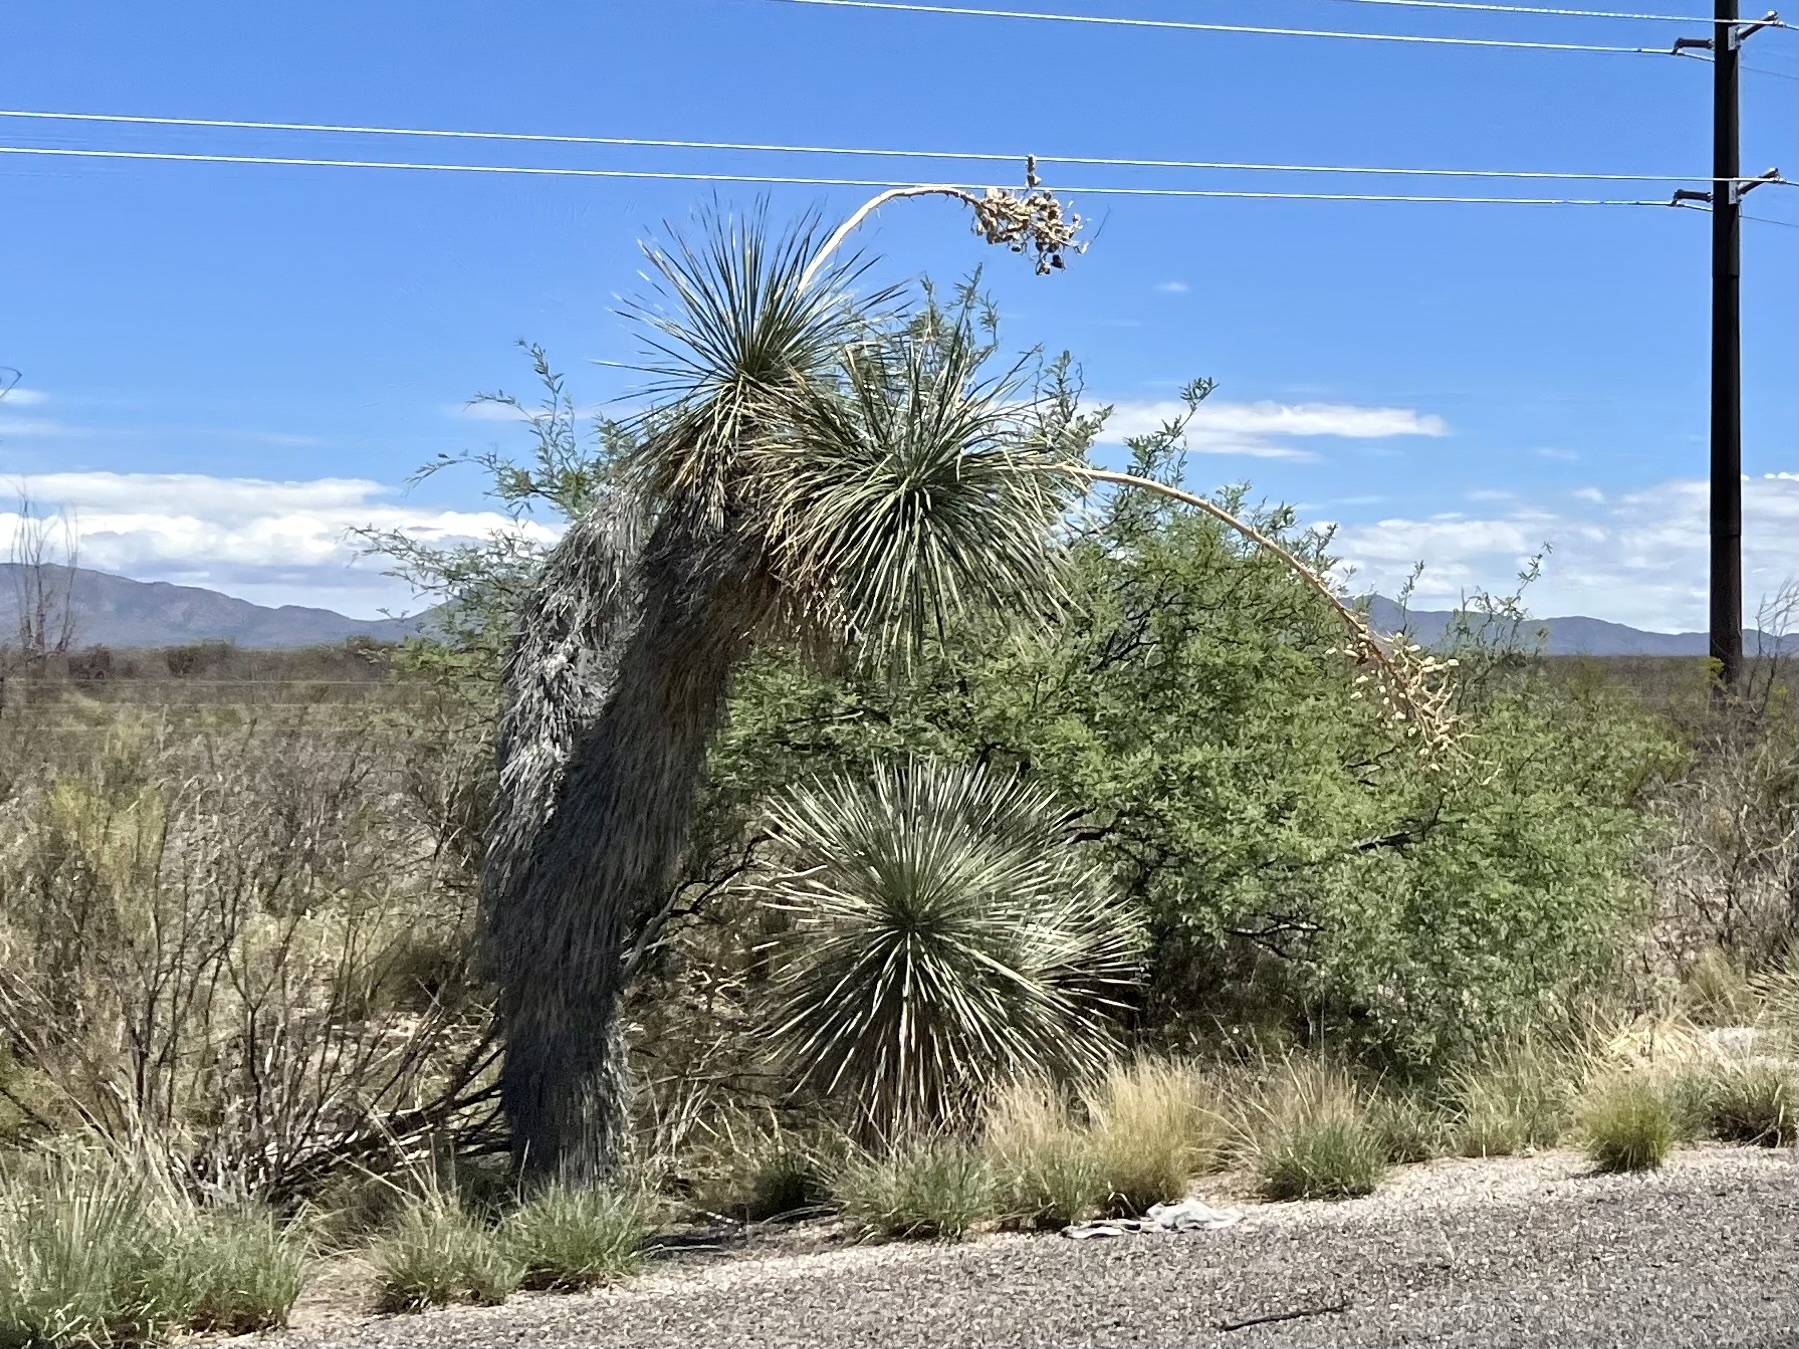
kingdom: Plantae
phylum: Tracheophyta
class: Liliopsida
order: Asparagales
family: Asparagaceae
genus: Yucca
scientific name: Yucca elata
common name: Palmella
